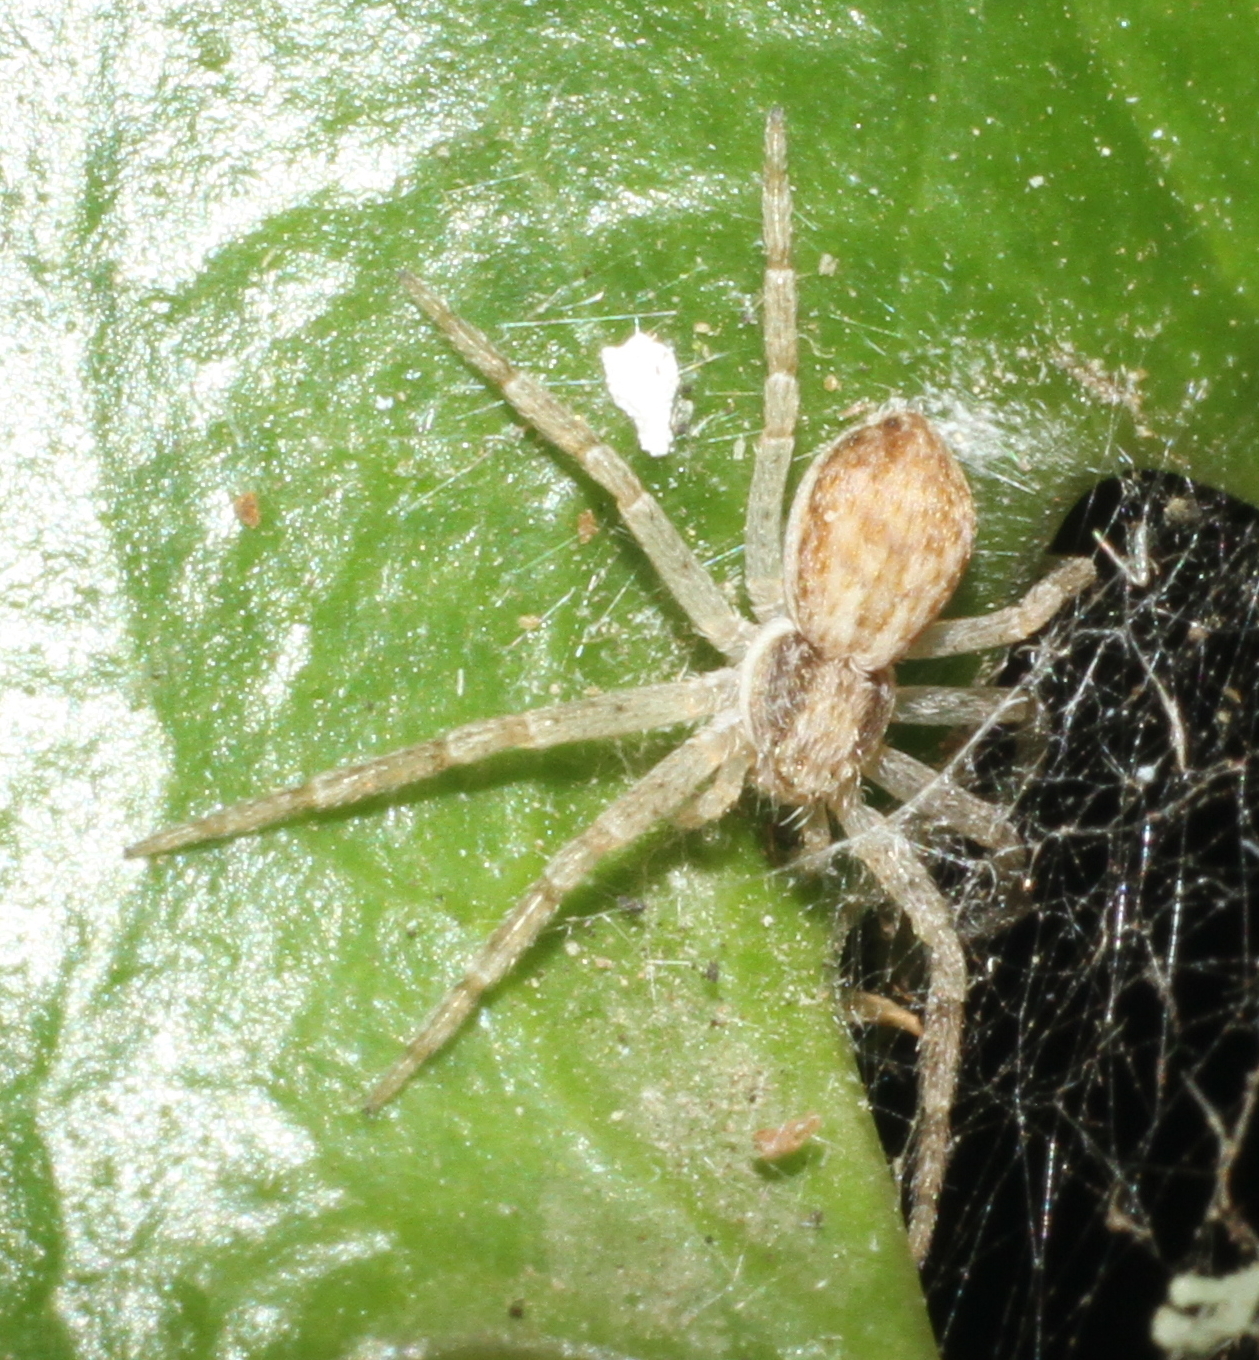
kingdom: Animalia
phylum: Arthropoda
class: Arachnida
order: Araneae
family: Philodromidae
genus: Philodromus
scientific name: Philodromus dispar
